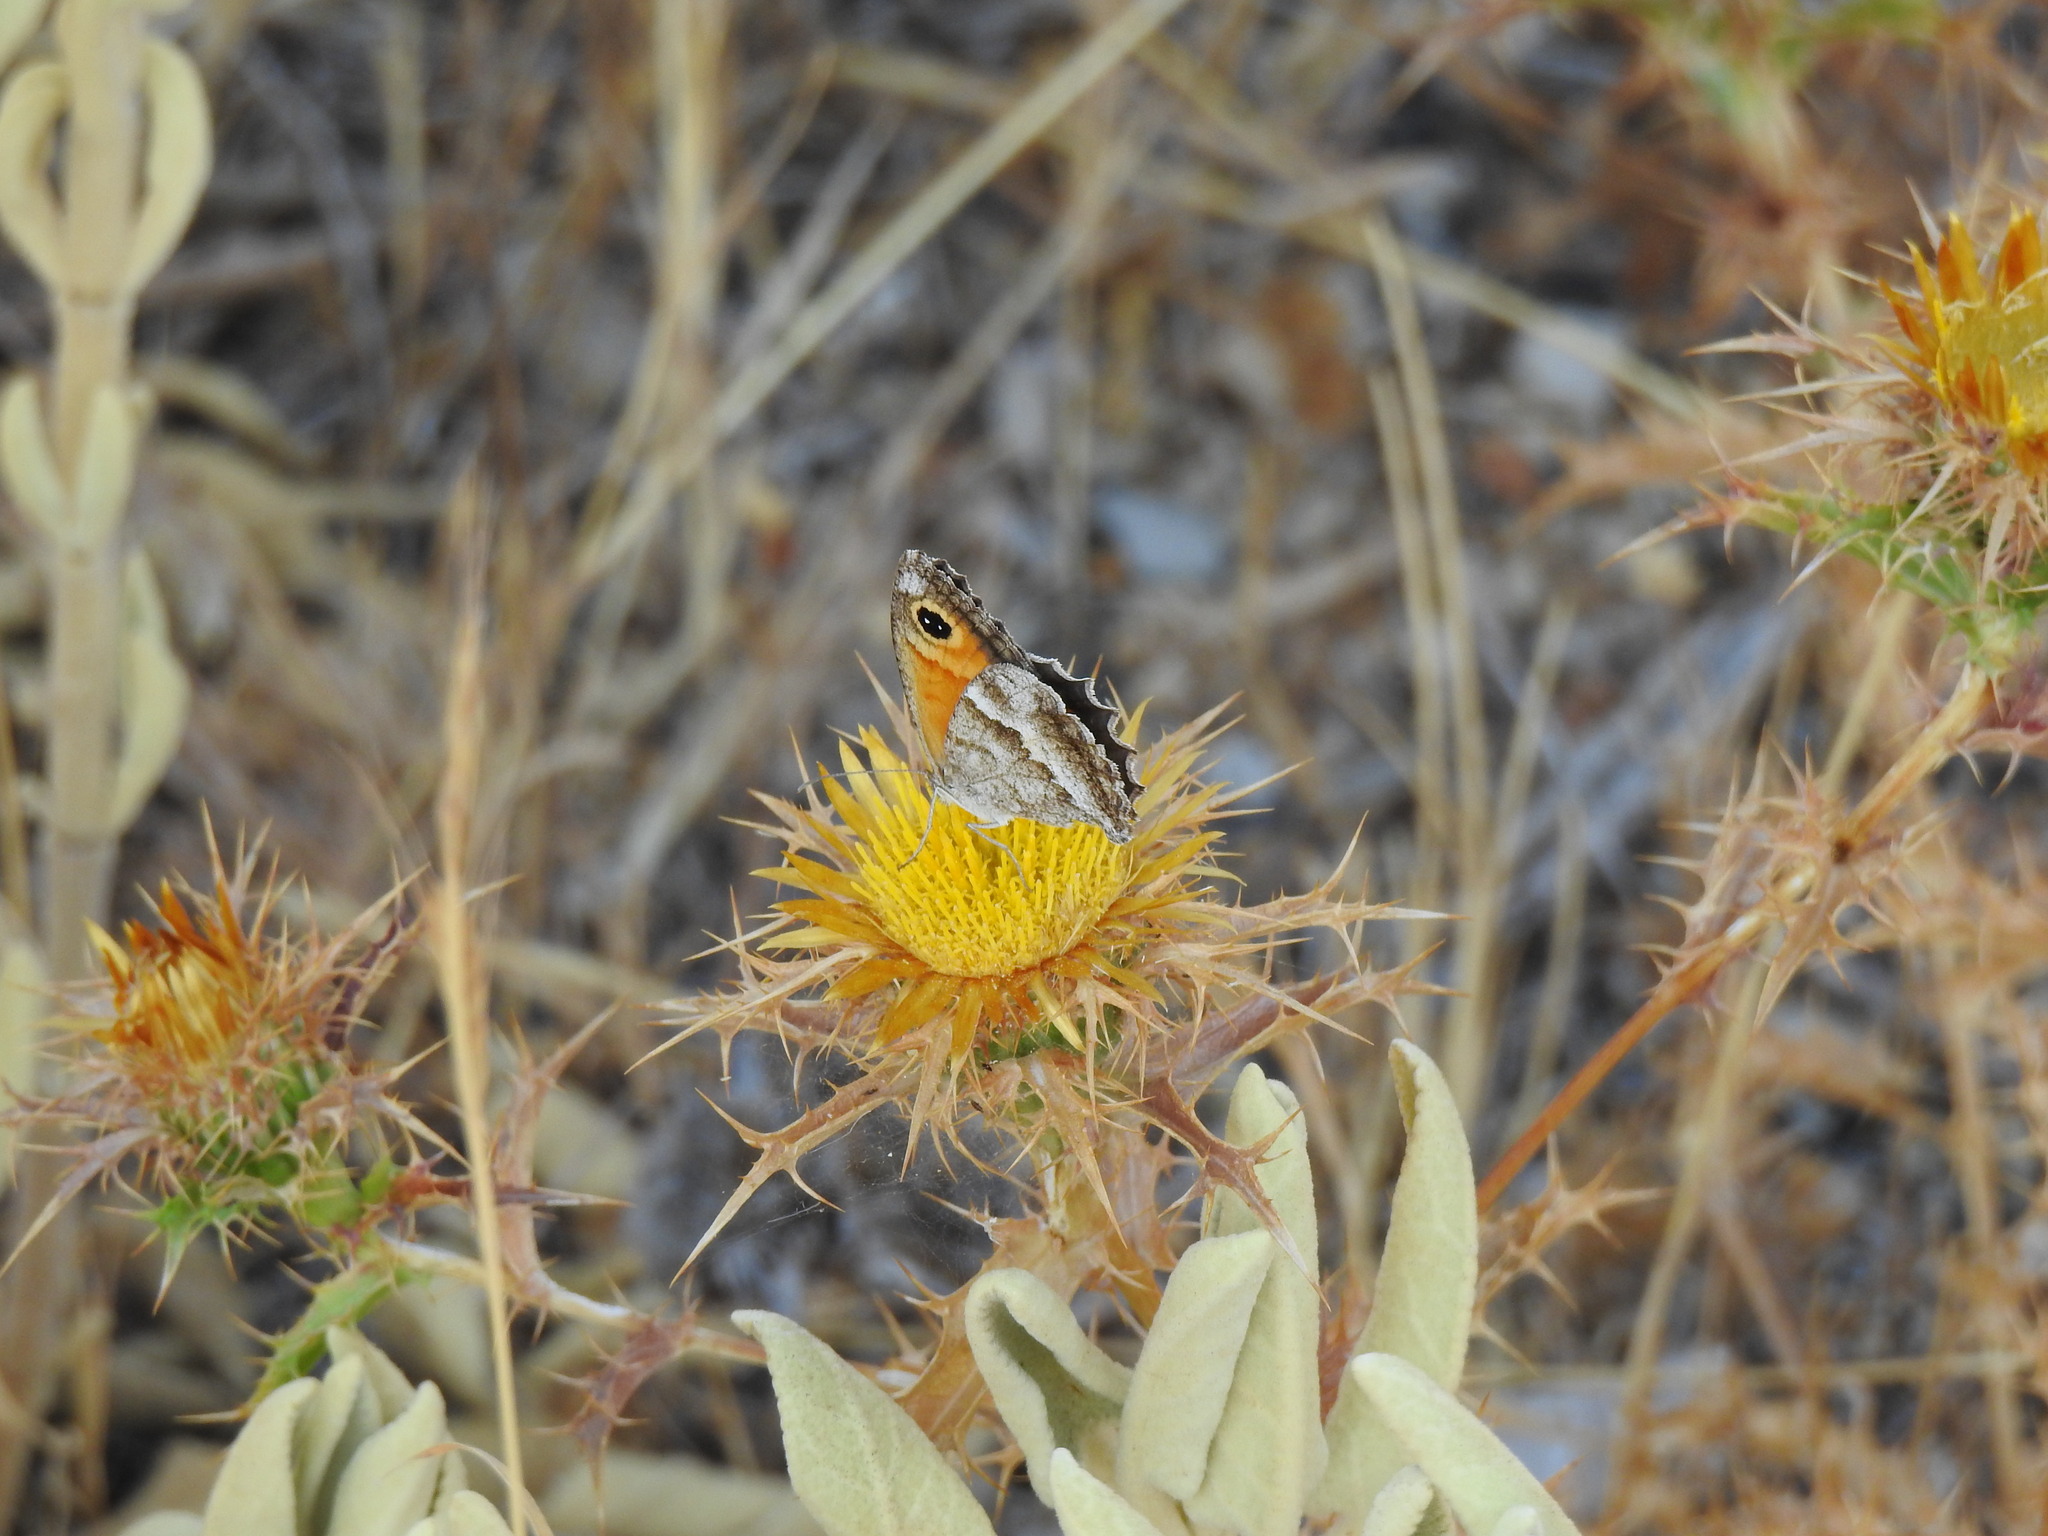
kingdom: Animalia
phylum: Arthropoda
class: Insecta
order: Lepidoptera
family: Nymphalidae
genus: Pyronia
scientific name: Pyronia cecilia
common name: Southern gatekeeper
